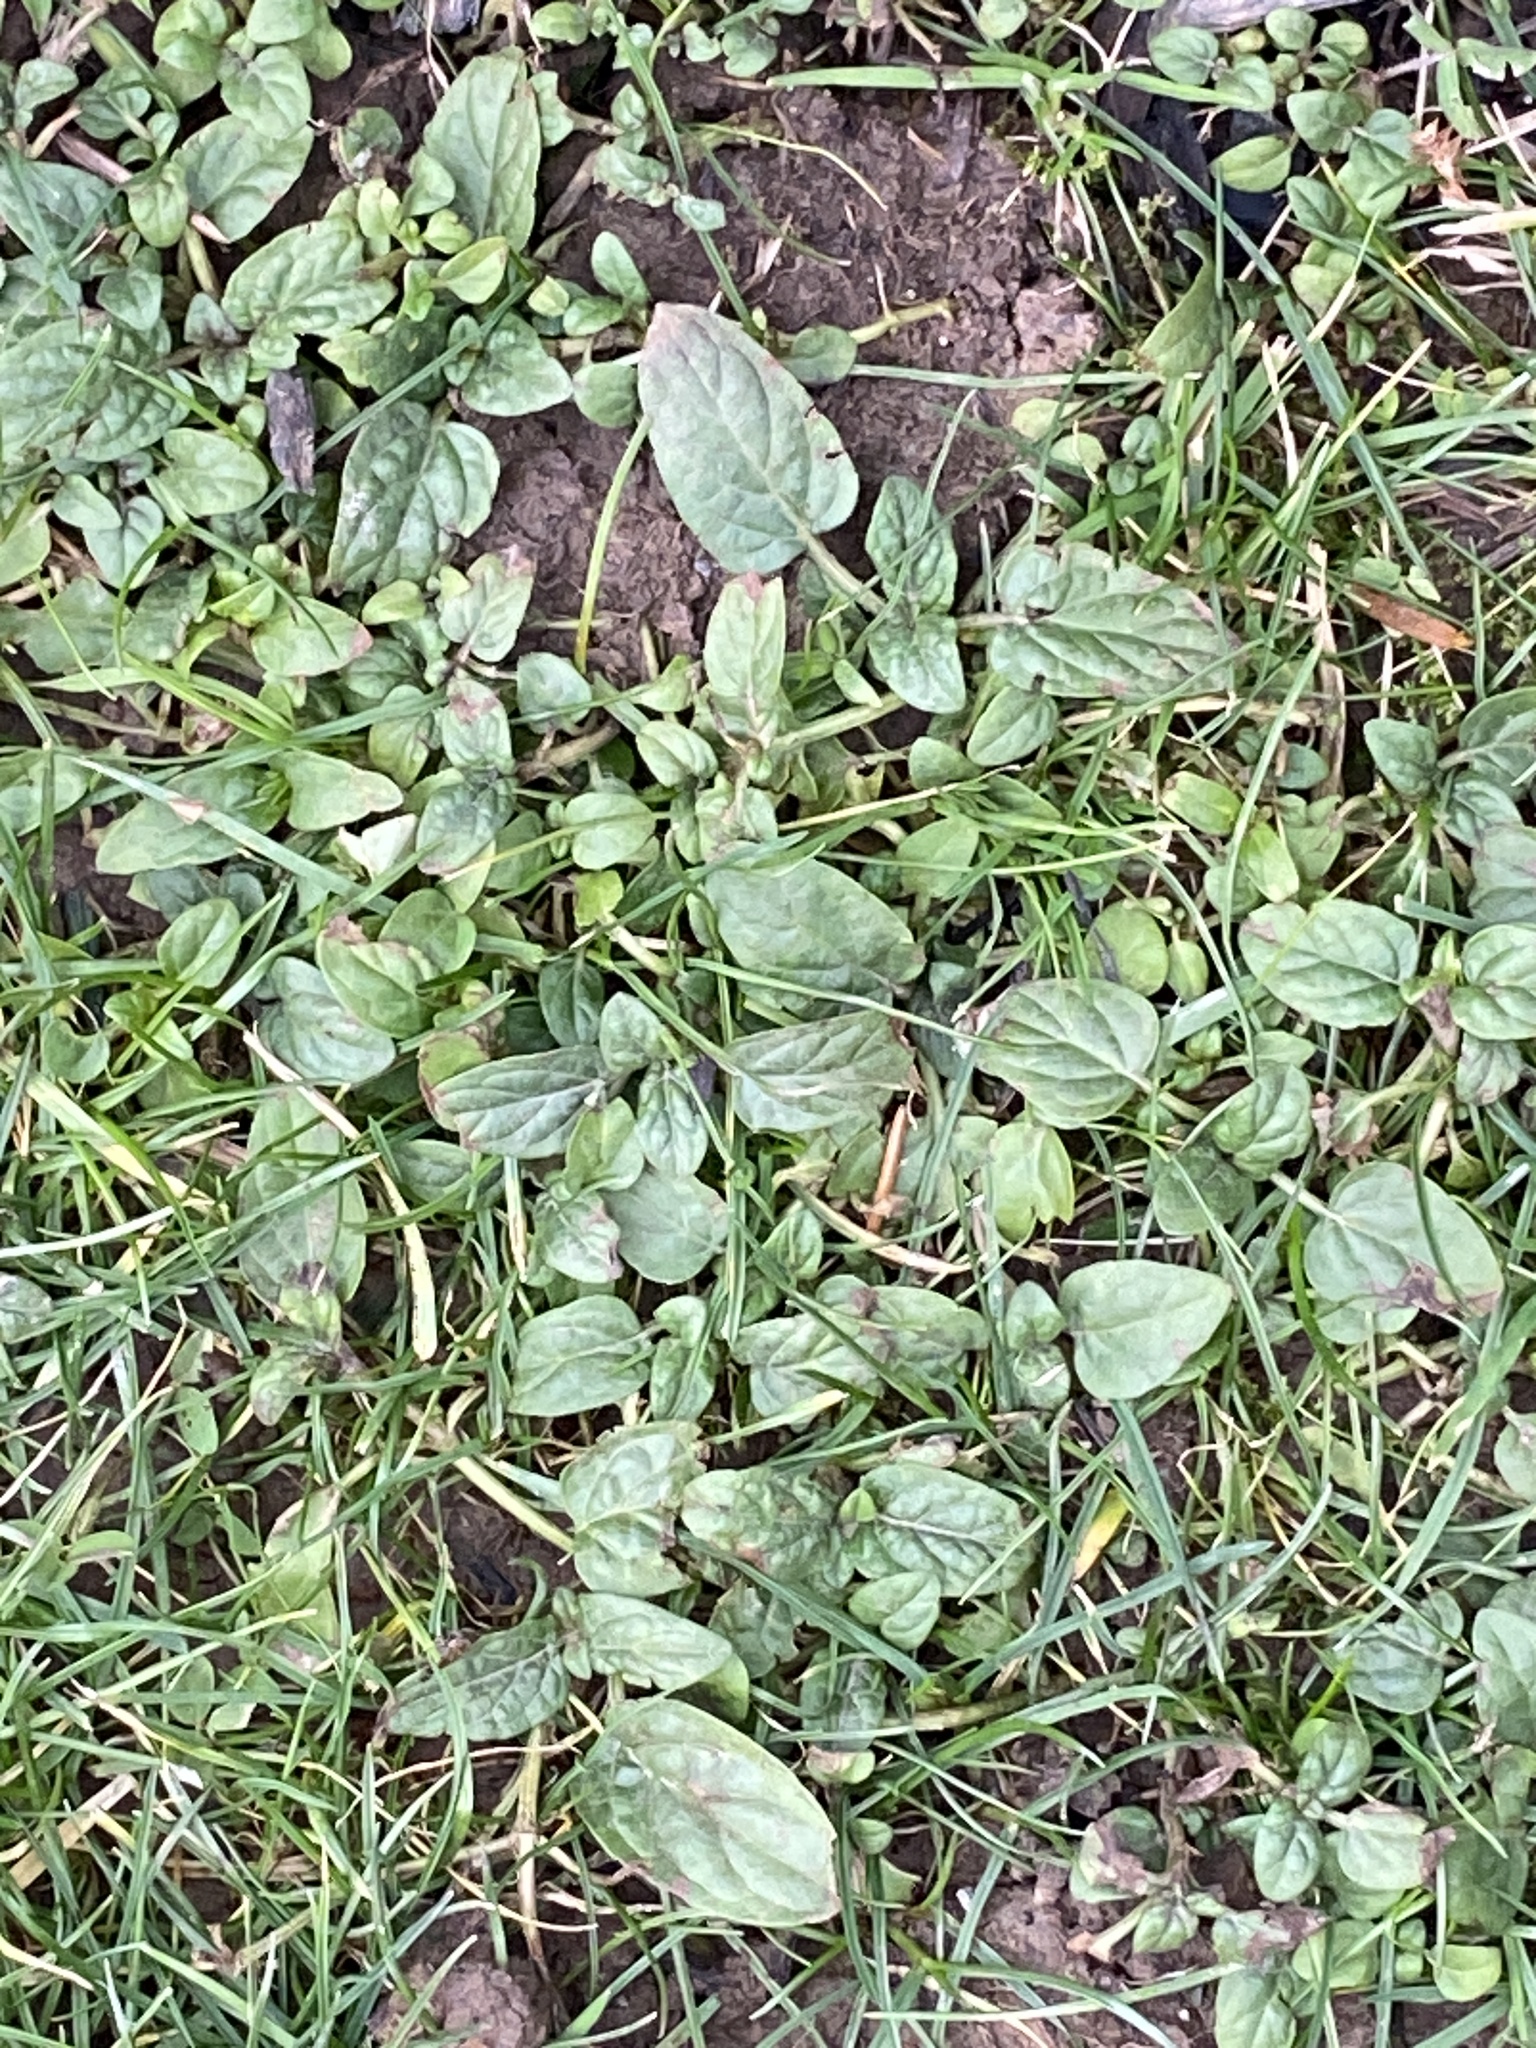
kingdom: Plantae
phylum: Tracheophyta
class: Magnoliopsida
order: Lamiales
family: Lamiaceae
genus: Prunella
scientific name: Prunella vulgaris
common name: Heal-all
